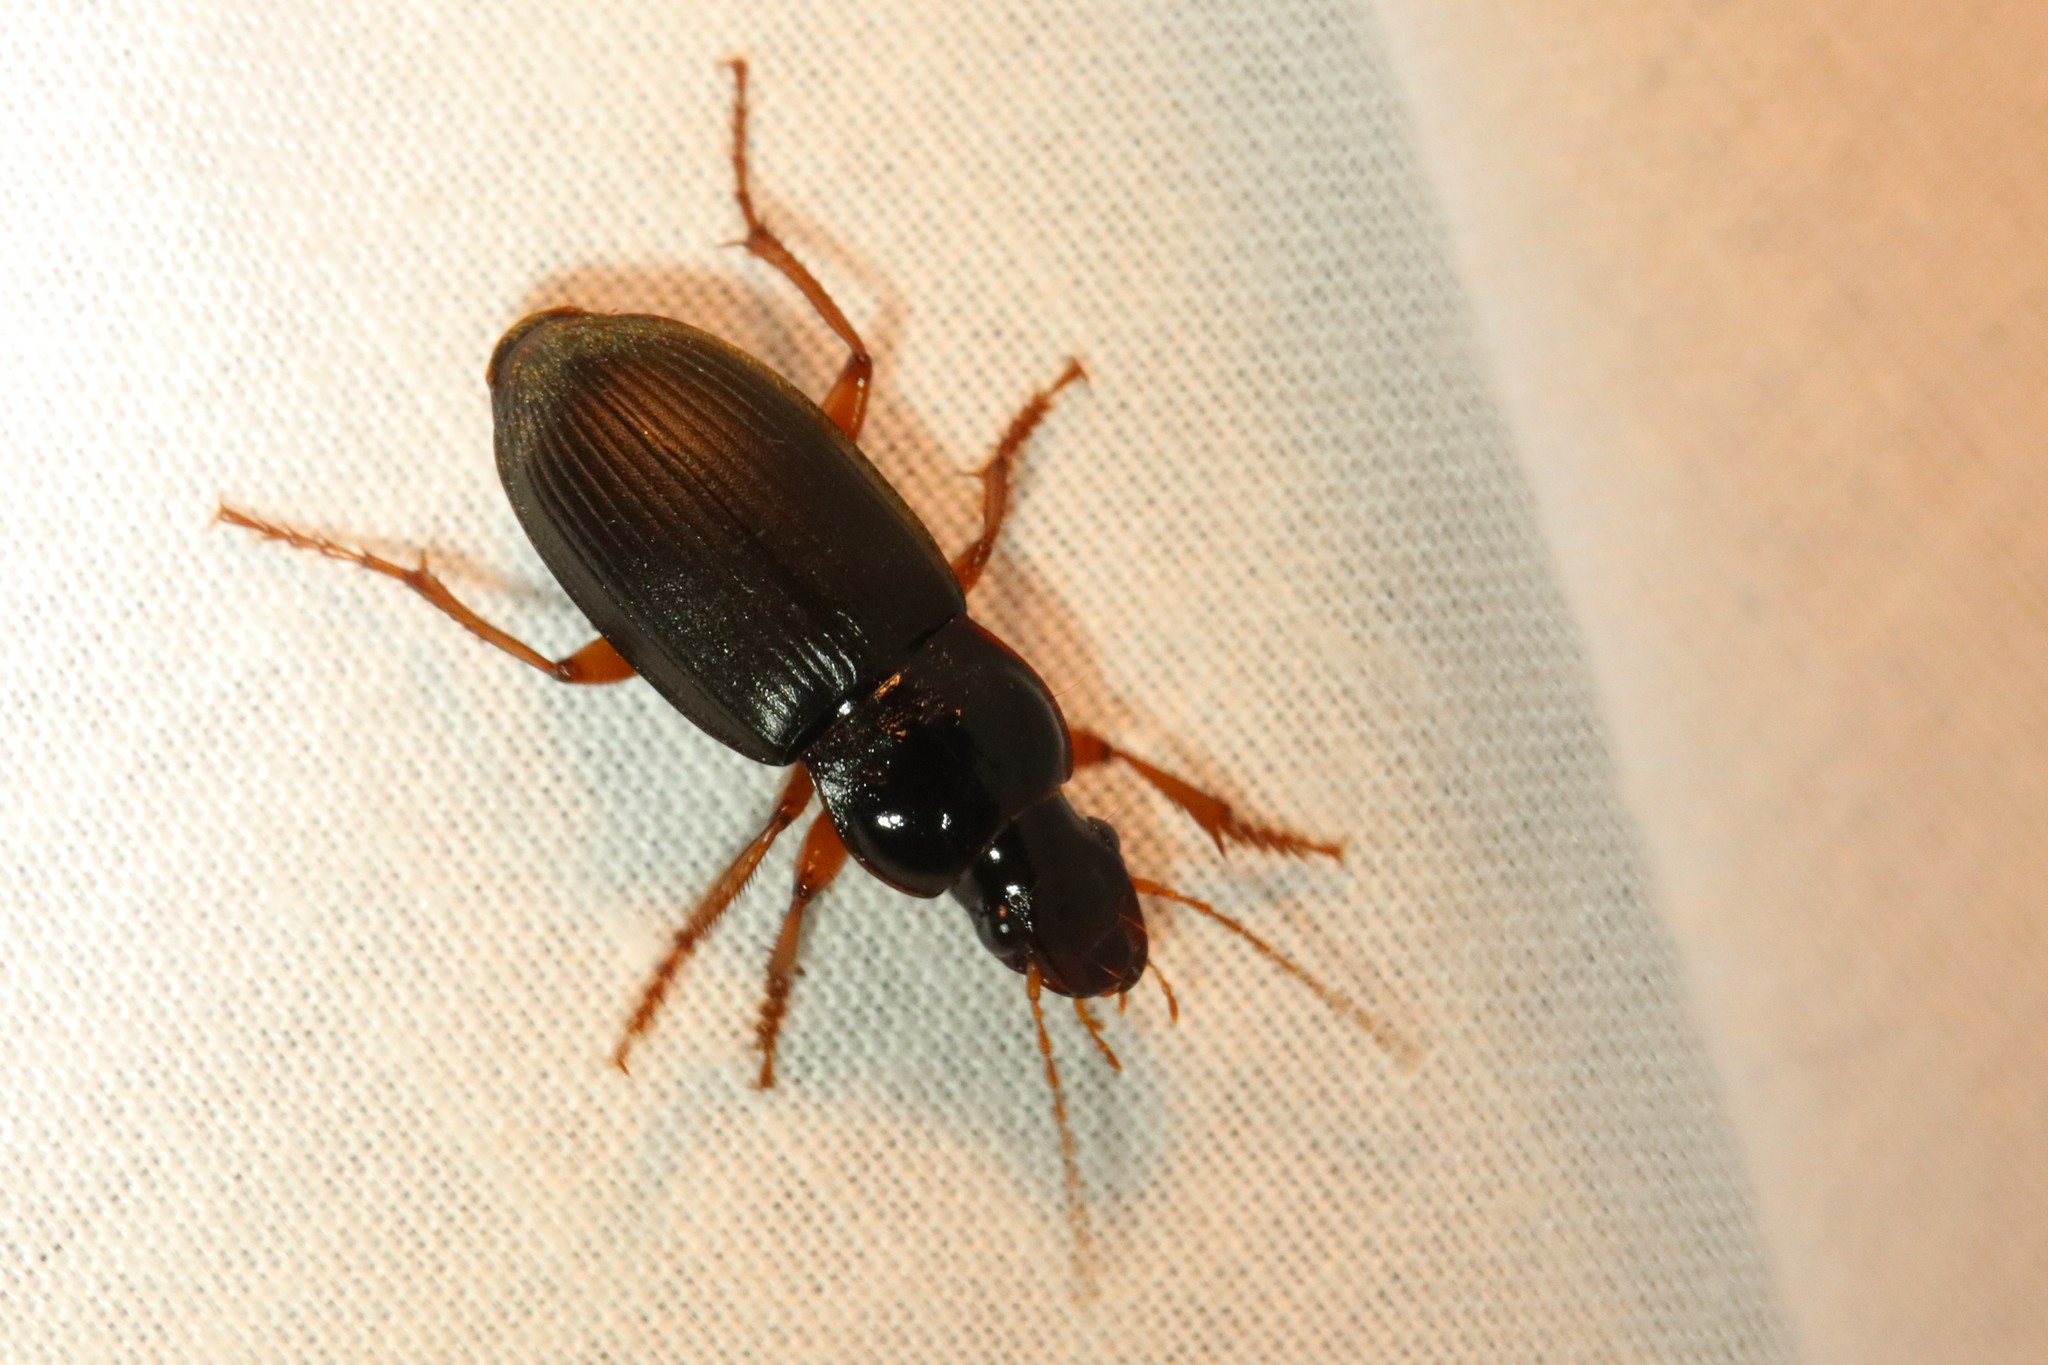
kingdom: Animalia
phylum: Arthropoda
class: Insecta
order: Coleoptera
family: Carabidae
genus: Harpalus
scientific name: Harpalus rufipes
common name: Strawberry harp ground beetle
